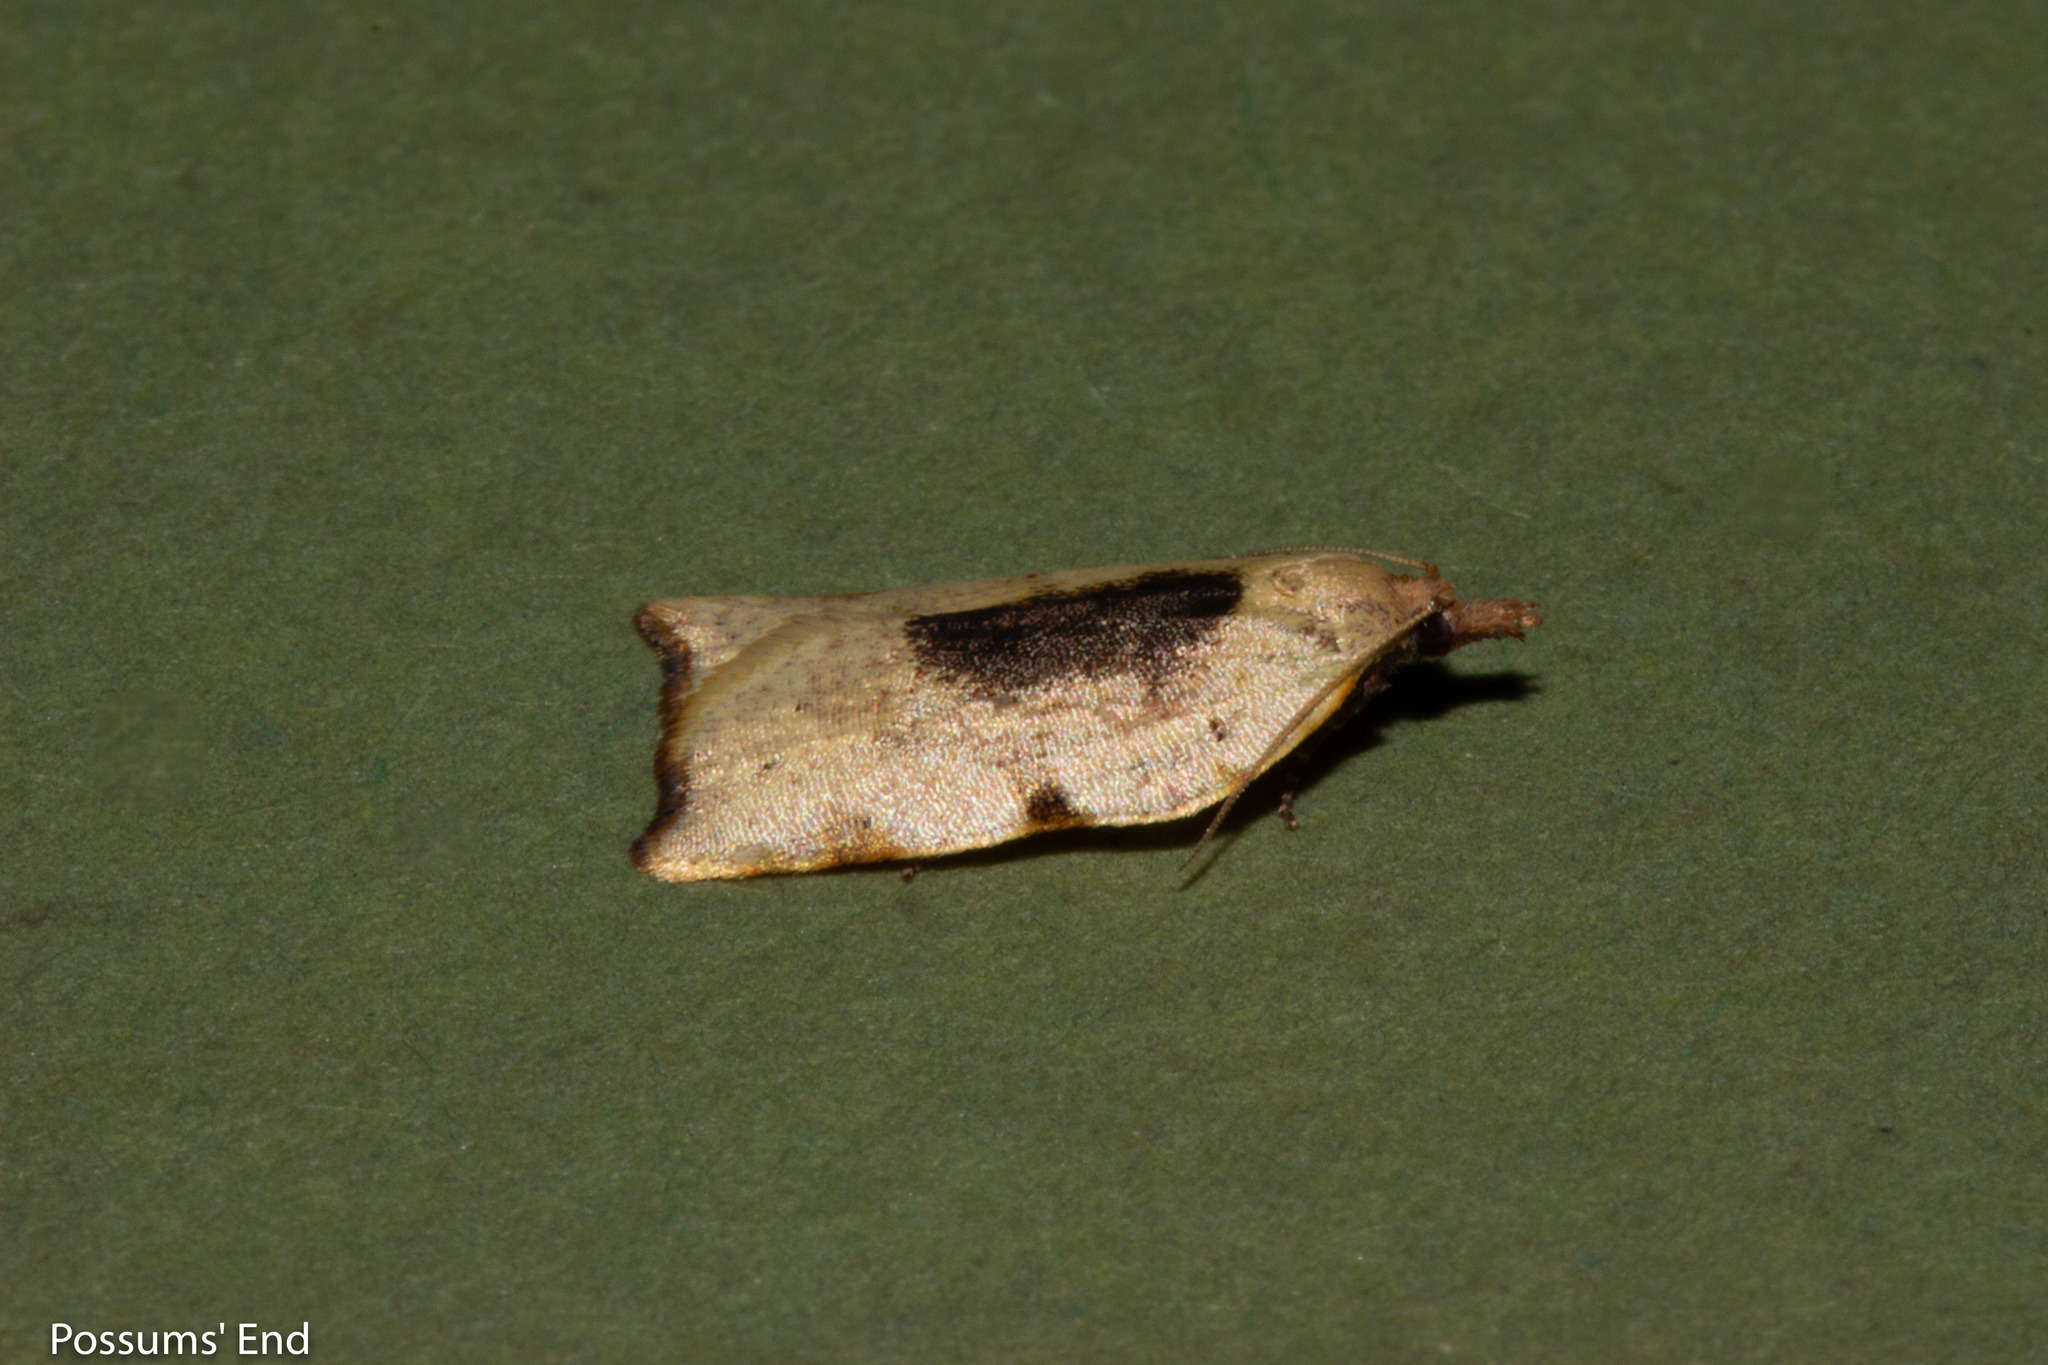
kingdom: Animalia
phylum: Arthropoda
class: Insecta
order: Lepidoptera
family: Tortricidae
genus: Apoctena
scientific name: Apoctena flavescens
